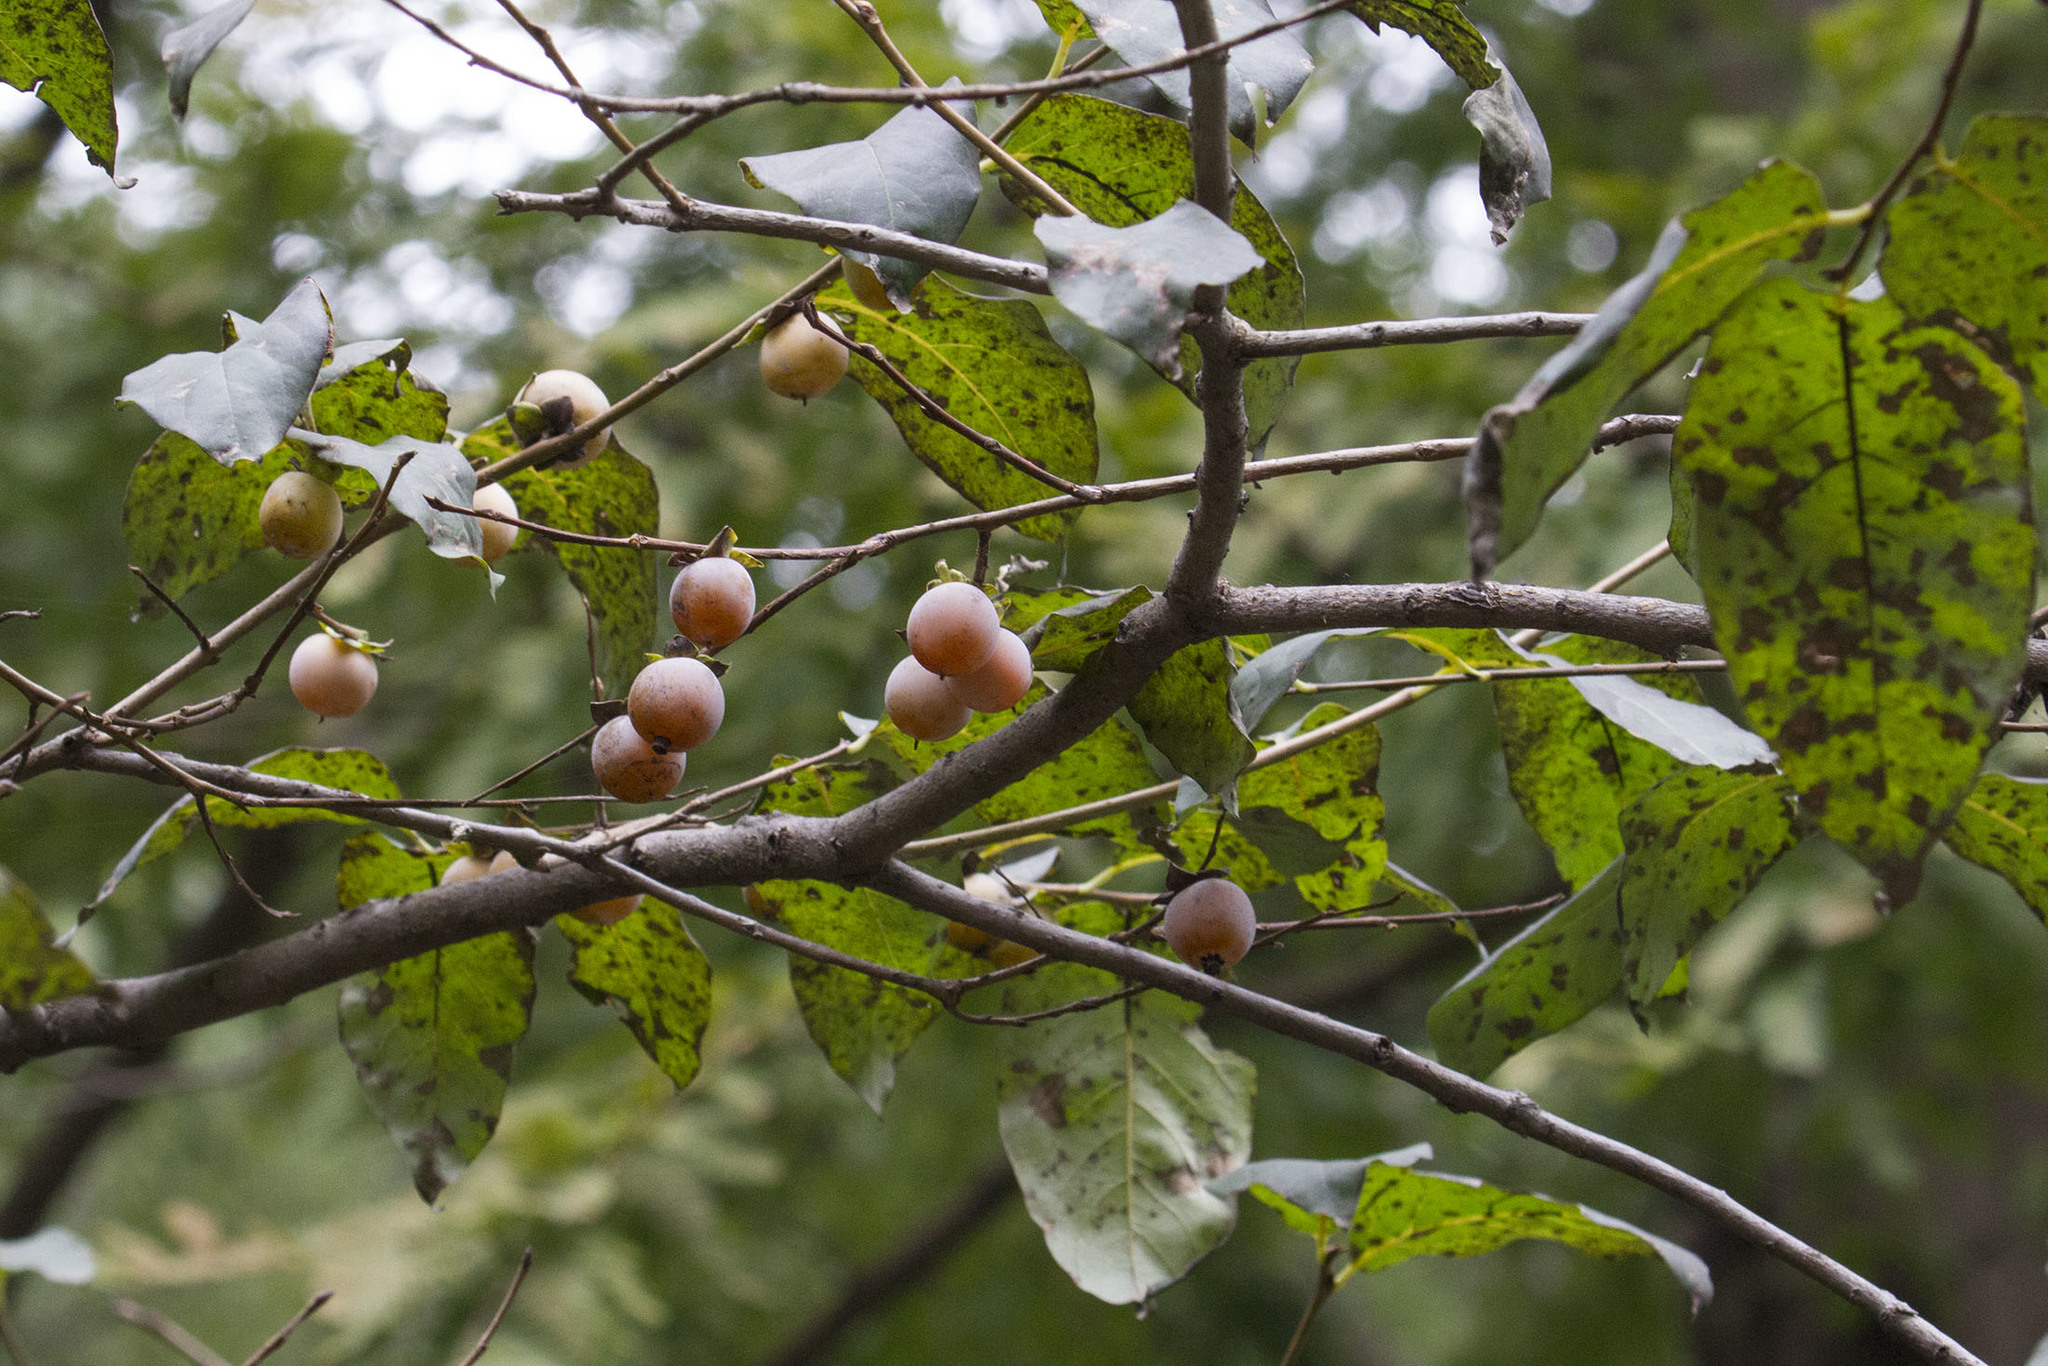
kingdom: Plantae
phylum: Tracheophyta
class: Magnoliopsida
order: Ericales
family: Ebenaceae
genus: Diospyros
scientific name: Diospyros lotus
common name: Date-plum
